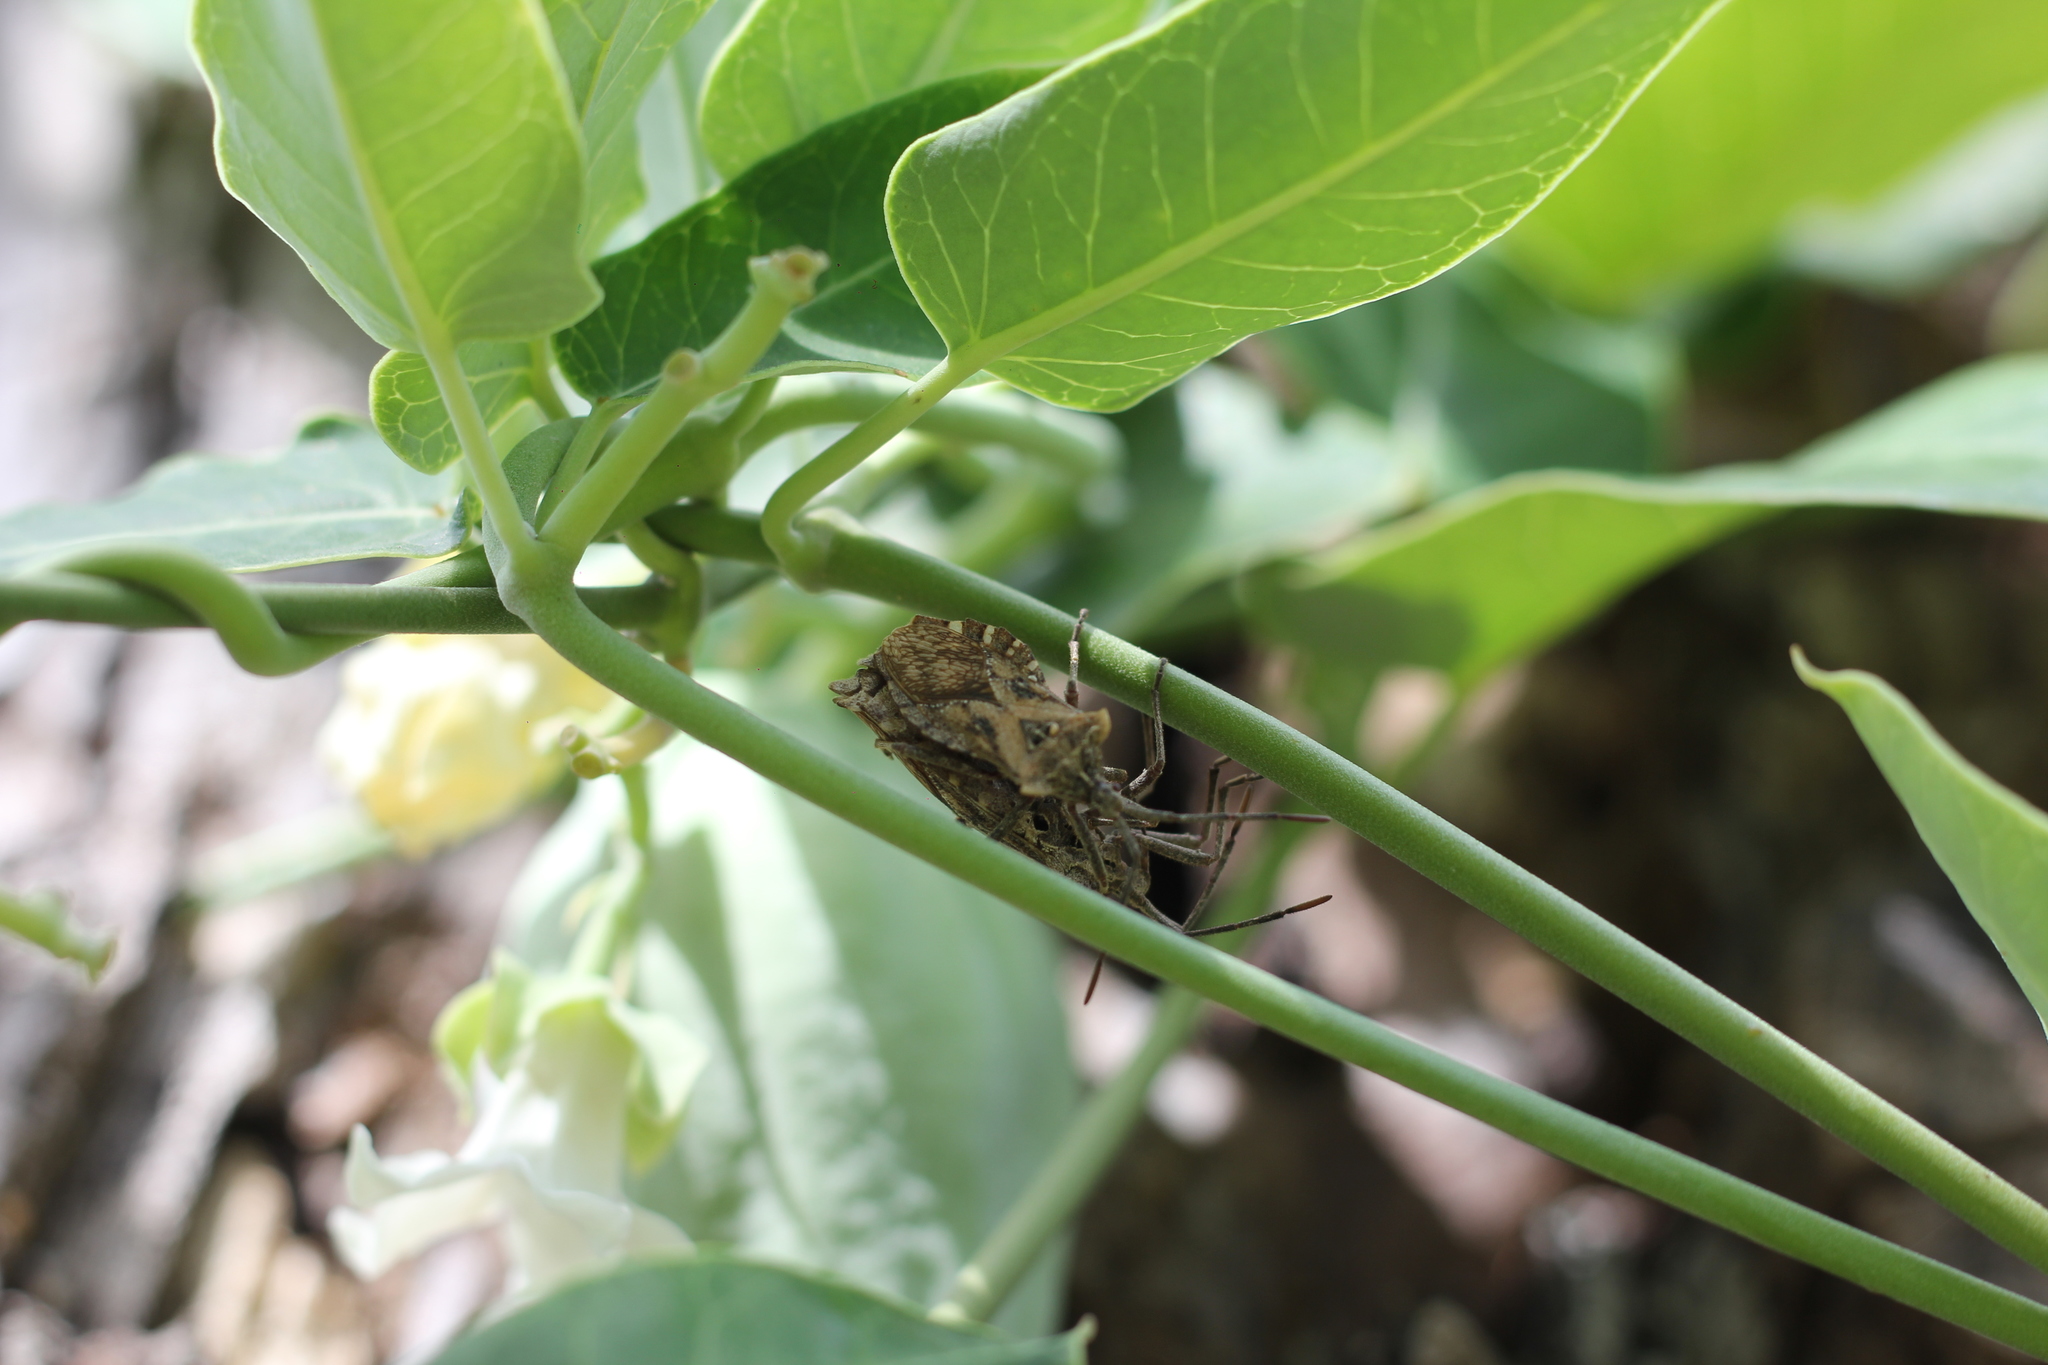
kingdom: Animalia
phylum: Arthropoda
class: Insecta
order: Hemiptera
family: Coreidae
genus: Eubule
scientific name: Eubule sculpta
